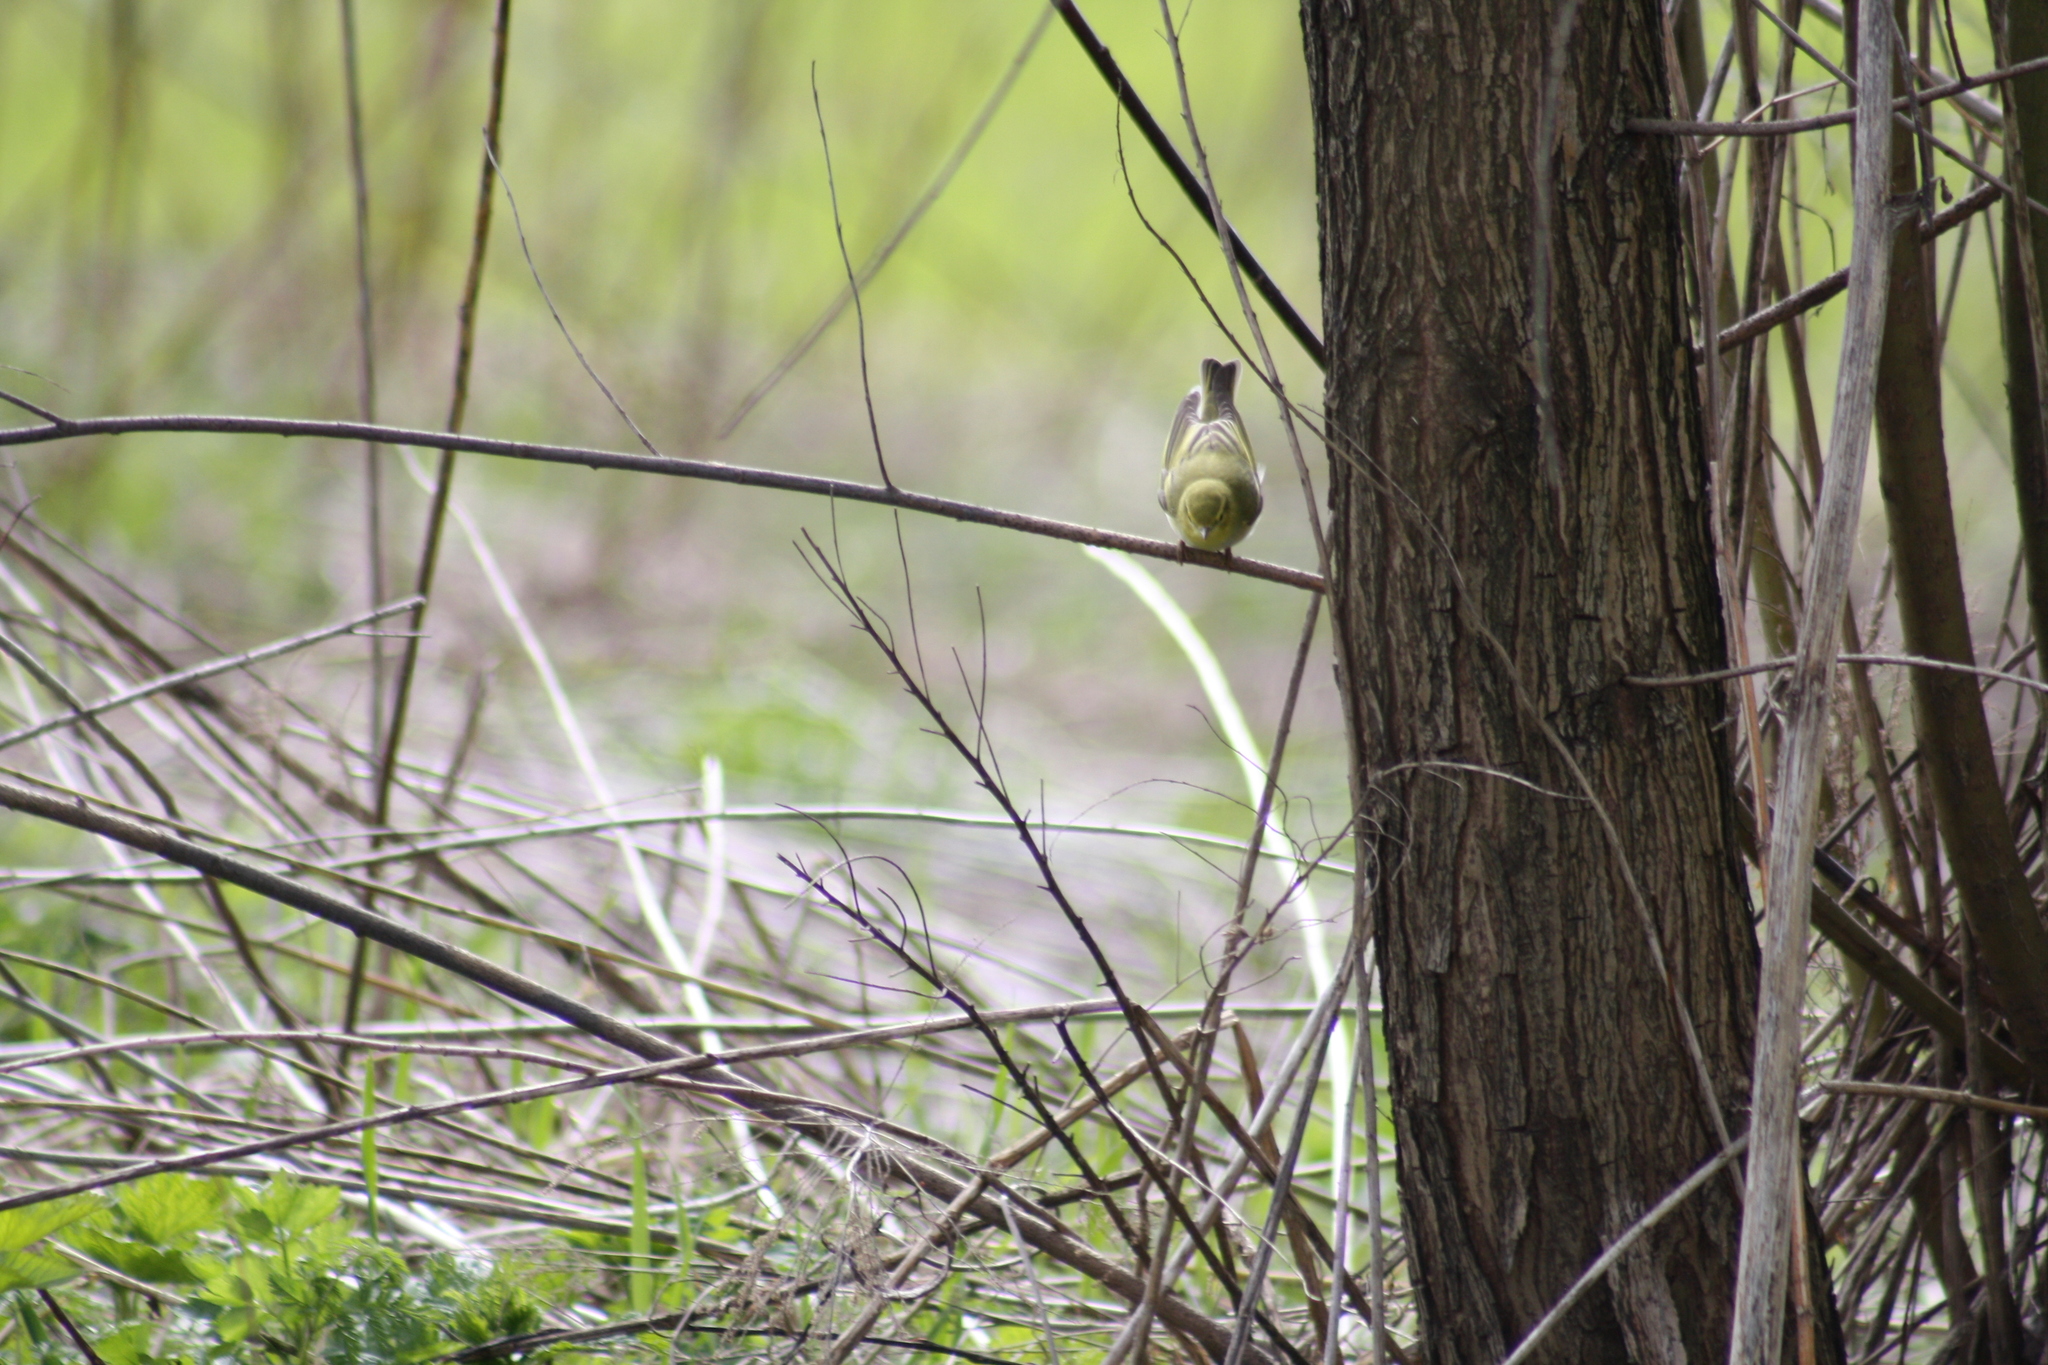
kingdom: Animalia
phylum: Chordata
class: Aves
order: Passeriformes
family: Phylloscopidae
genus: Phylloscopus
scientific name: Phylloscopus sibillatrix
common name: Wood warbler
